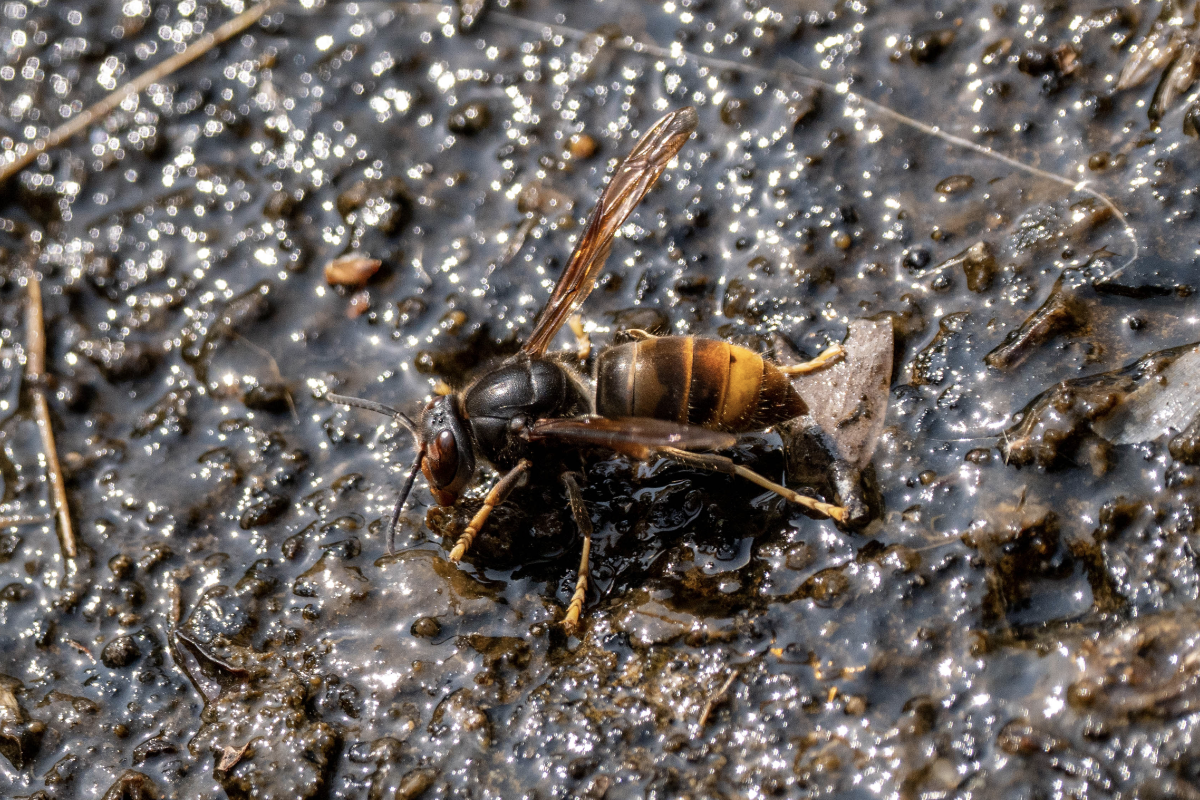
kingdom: Animalia
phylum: Arthropoda
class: Insecta
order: Hymenoptera
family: Vespidae
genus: Vespa
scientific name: Vespa velutina
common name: Asian hornet
